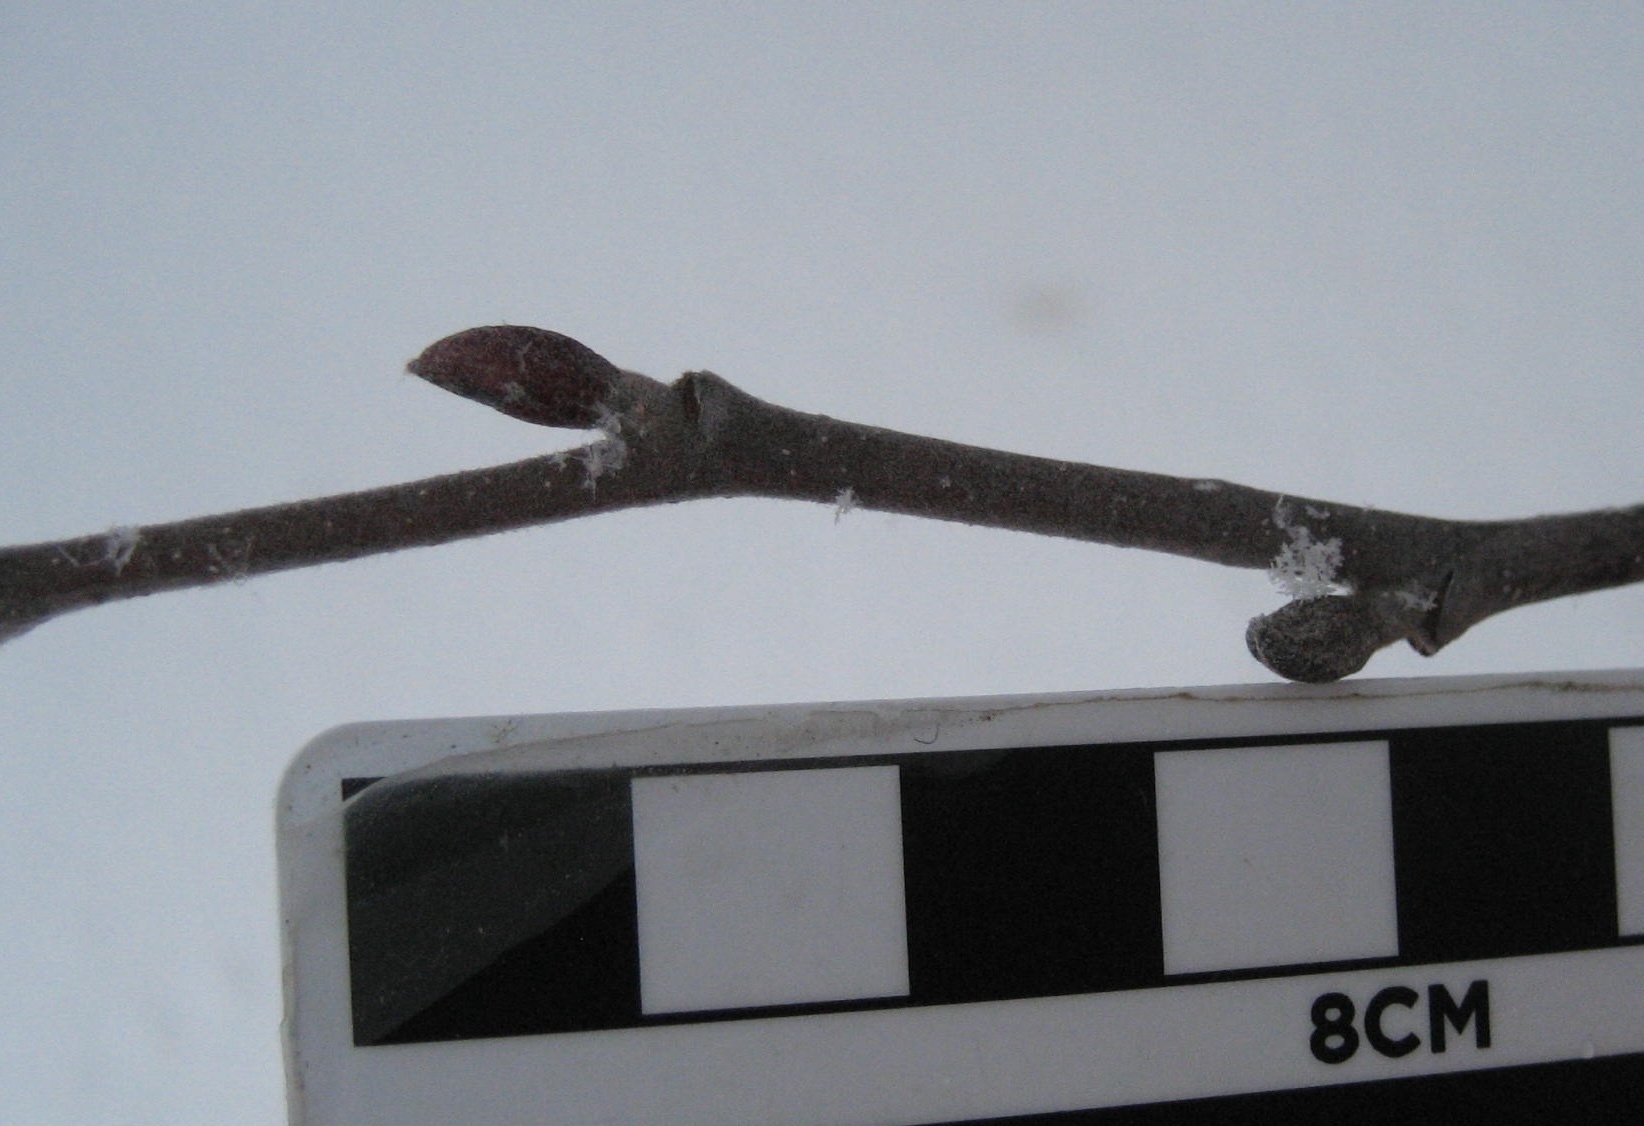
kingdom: Plantae
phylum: Tracheophyta
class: Magnoliopsida
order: Fagales
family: Betulaceae
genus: Alnus
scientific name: Alnus incana
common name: Grey alder
